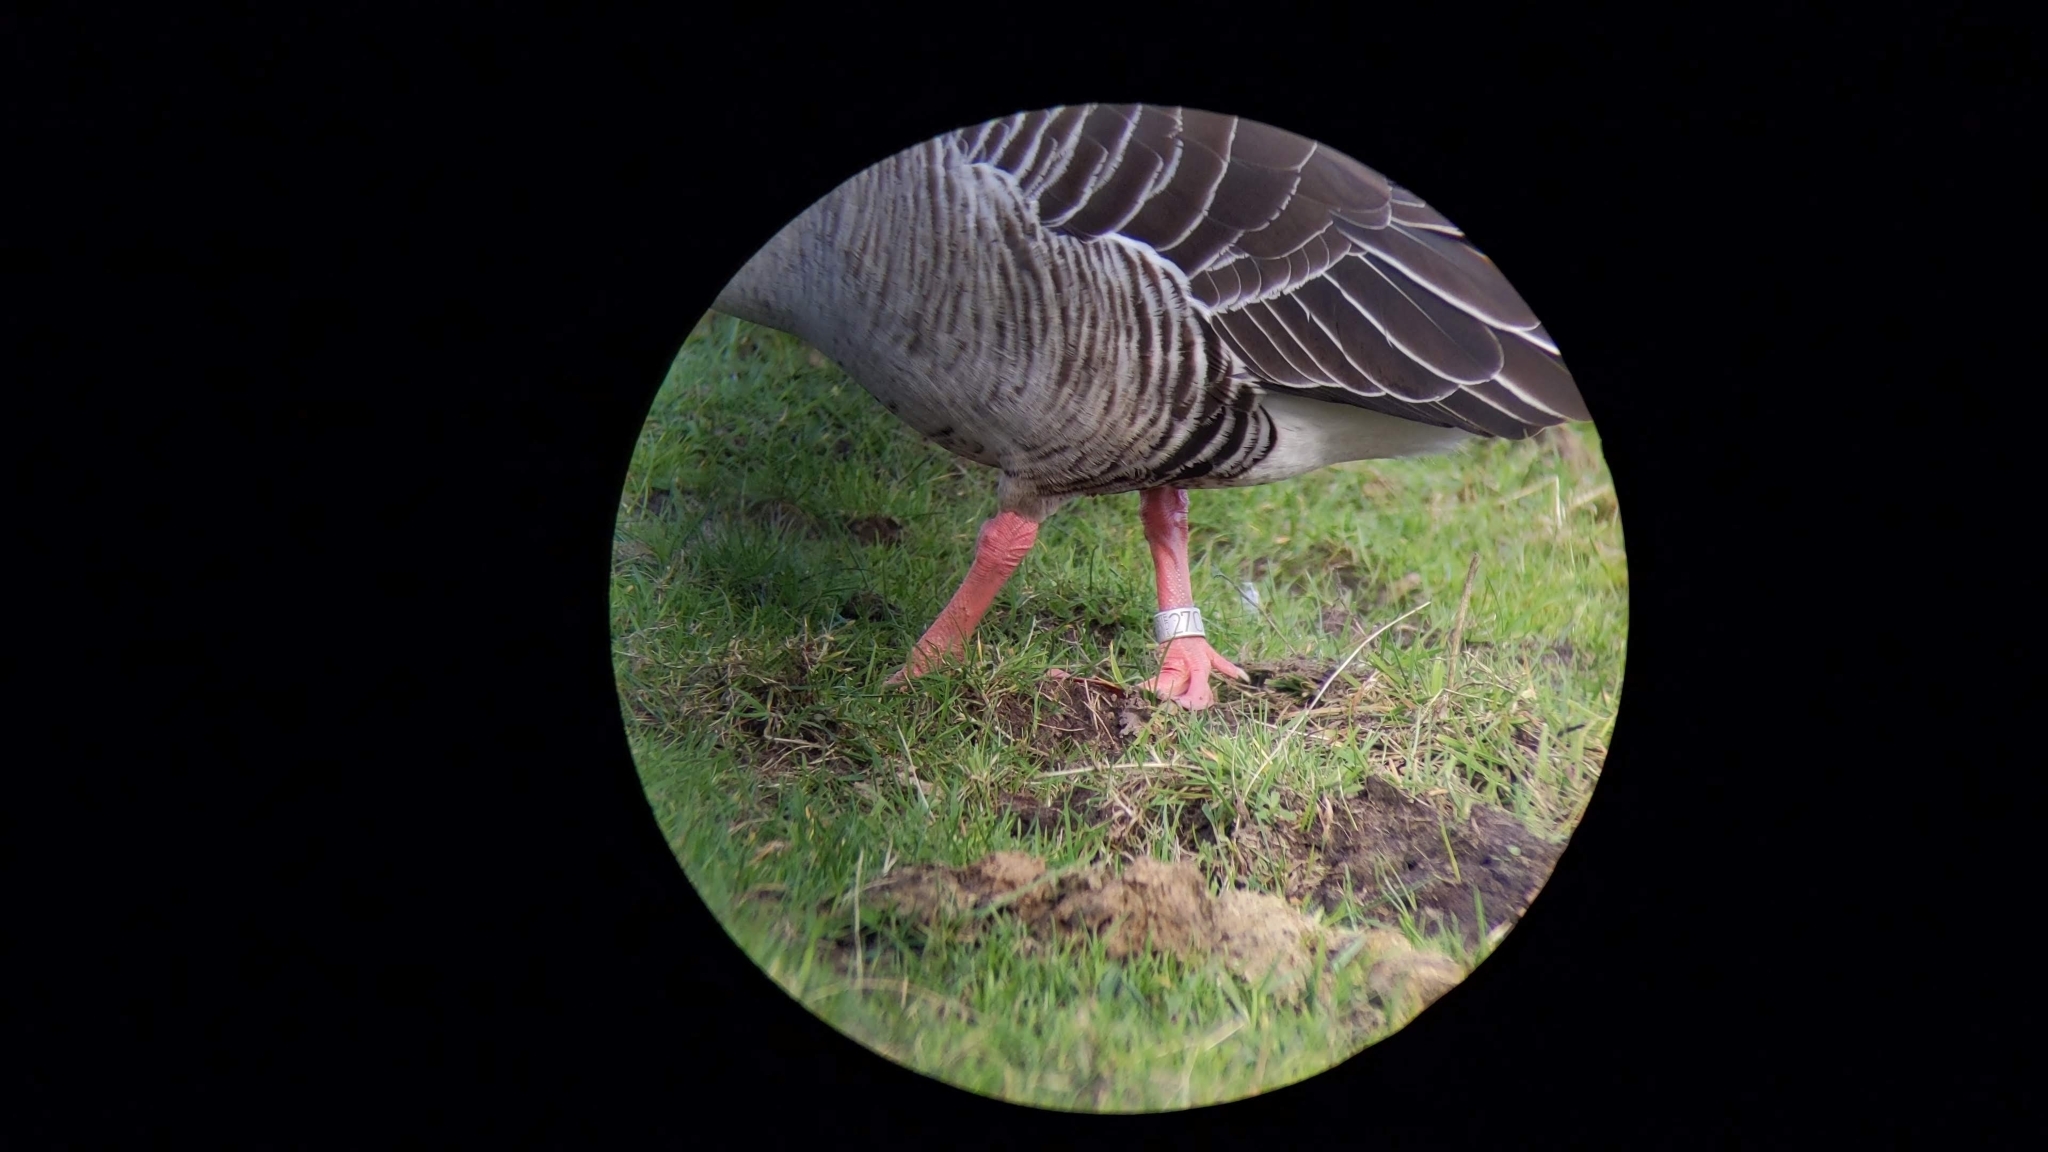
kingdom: Animalia
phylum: Chordata
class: Aves
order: Anseriformes
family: Anatidae
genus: Anser
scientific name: Anser anser
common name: Greylag goose
